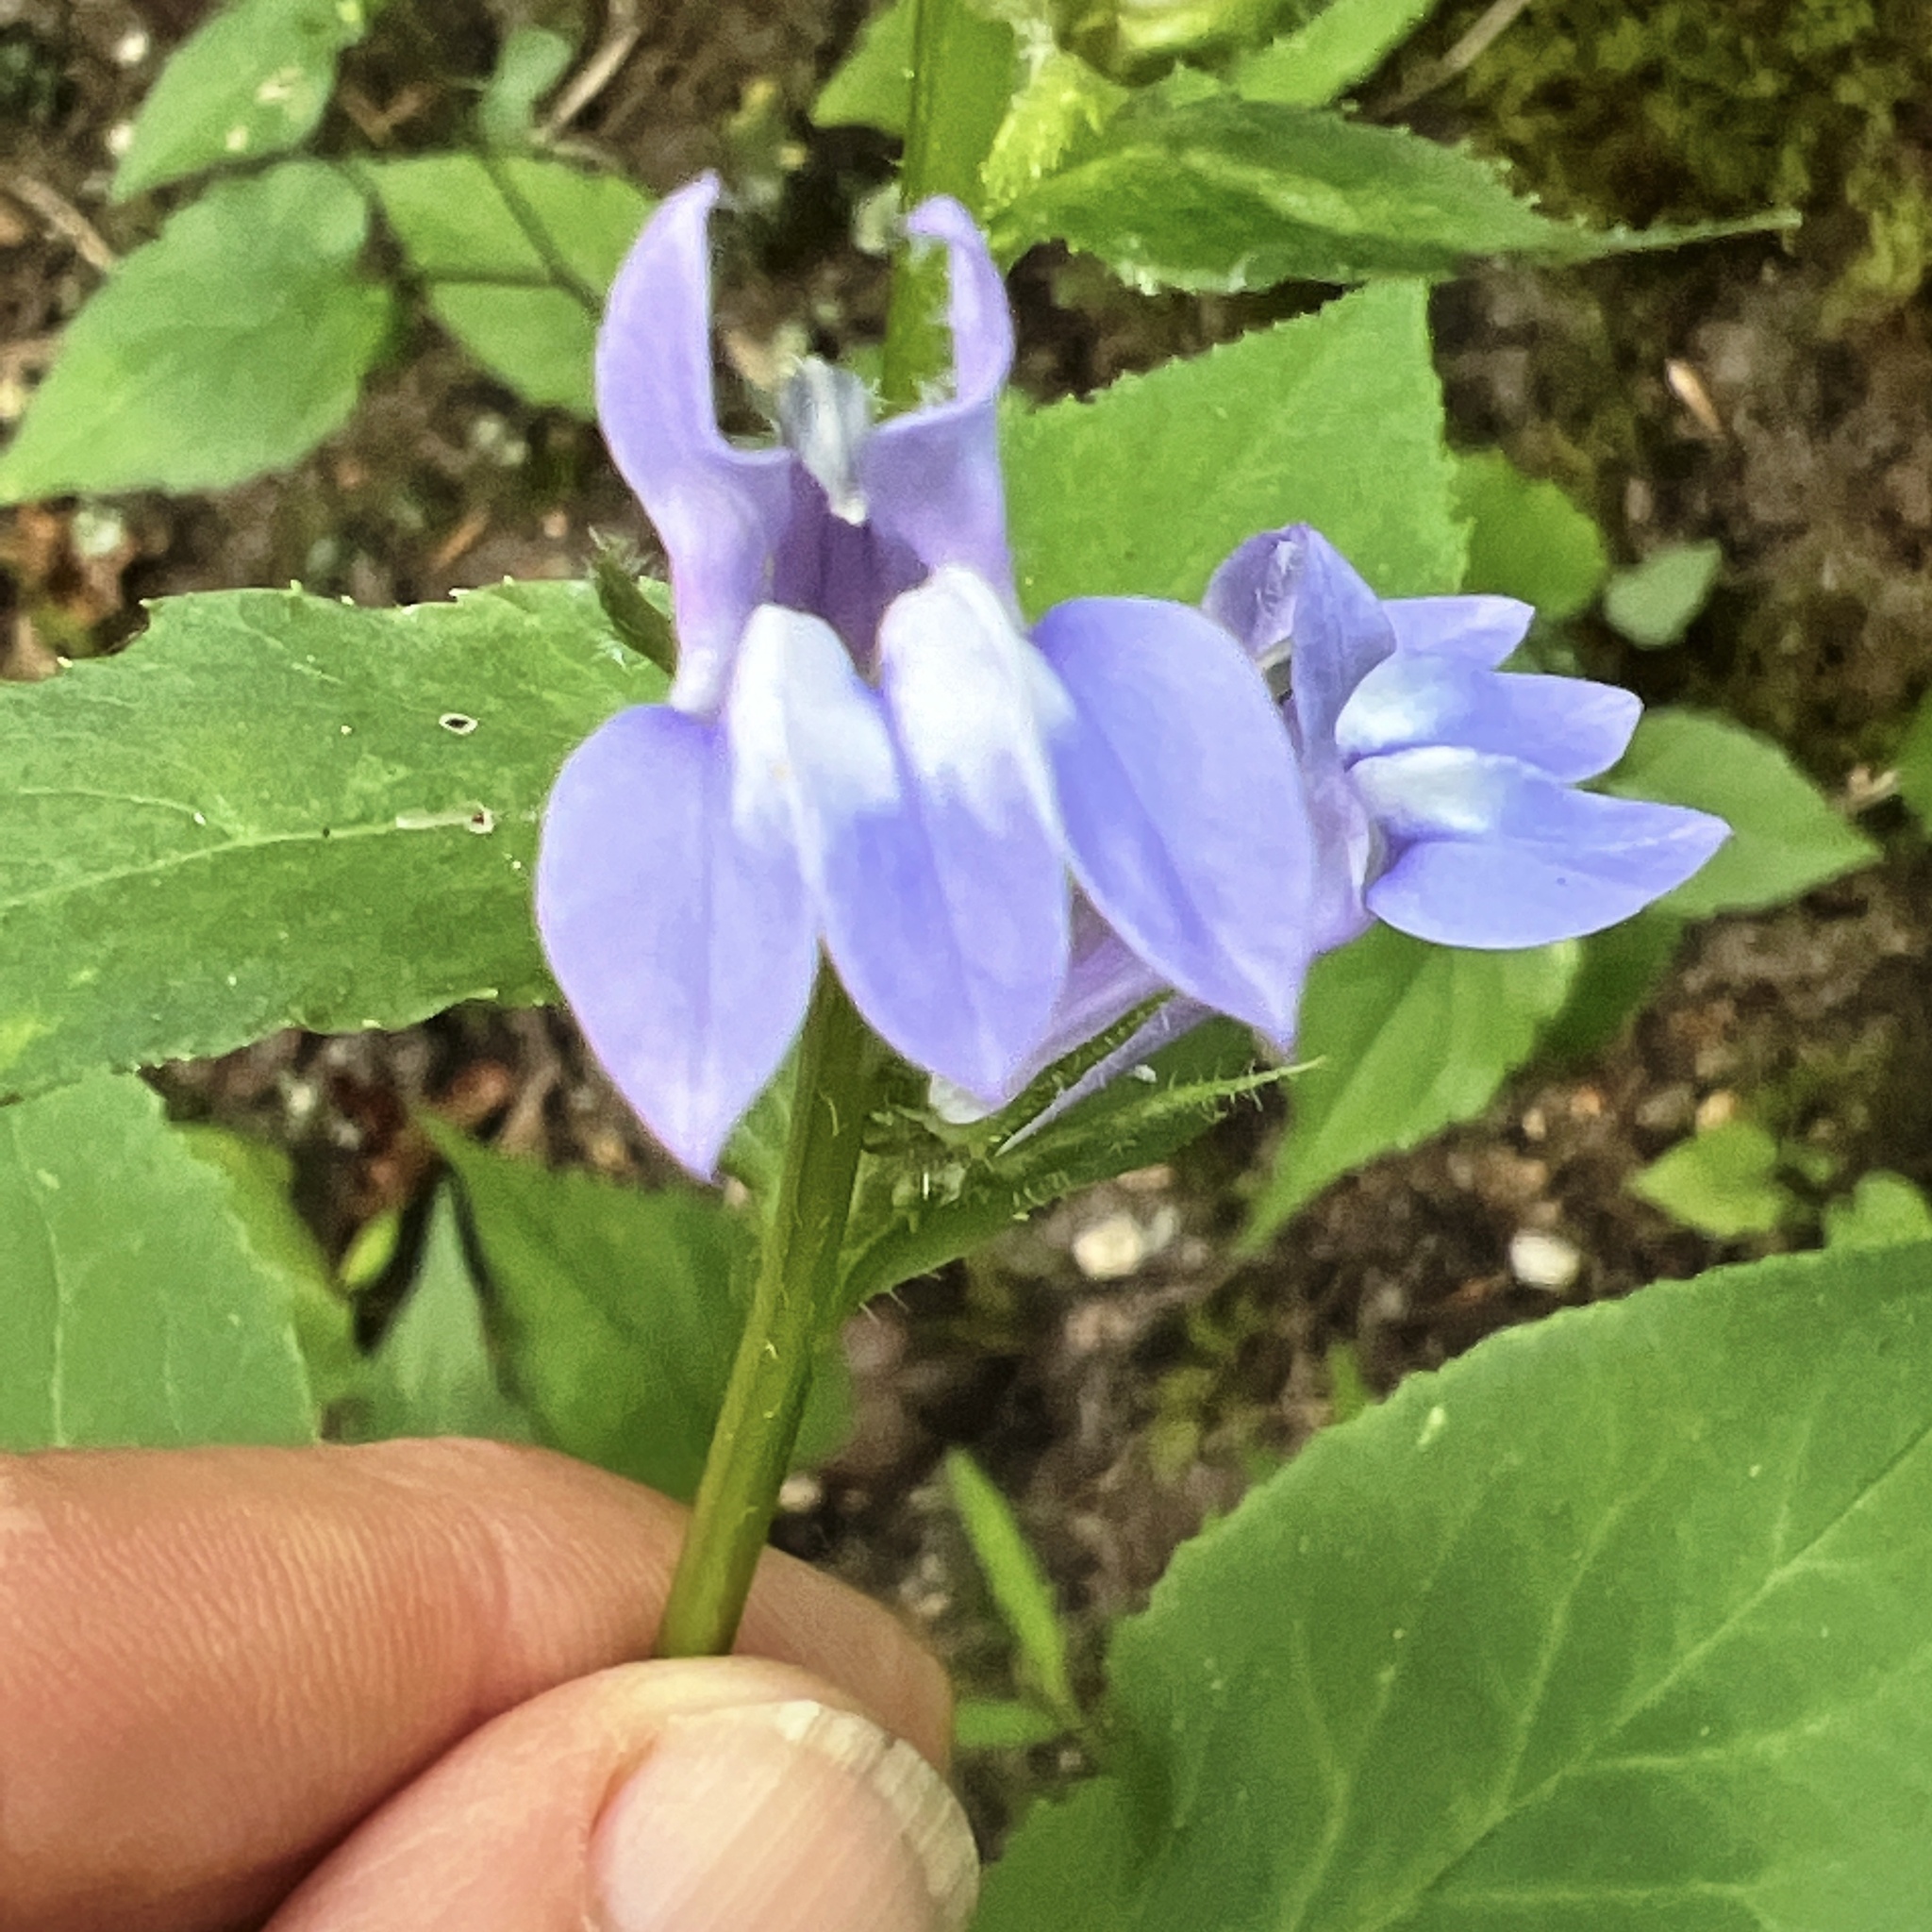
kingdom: Plantae
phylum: Tracheophyta
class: Magnoliopsida
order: Asterales
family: Campanulaceae
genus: Lobelia
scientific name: Lobelia siphilitica
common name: Great lobelia
